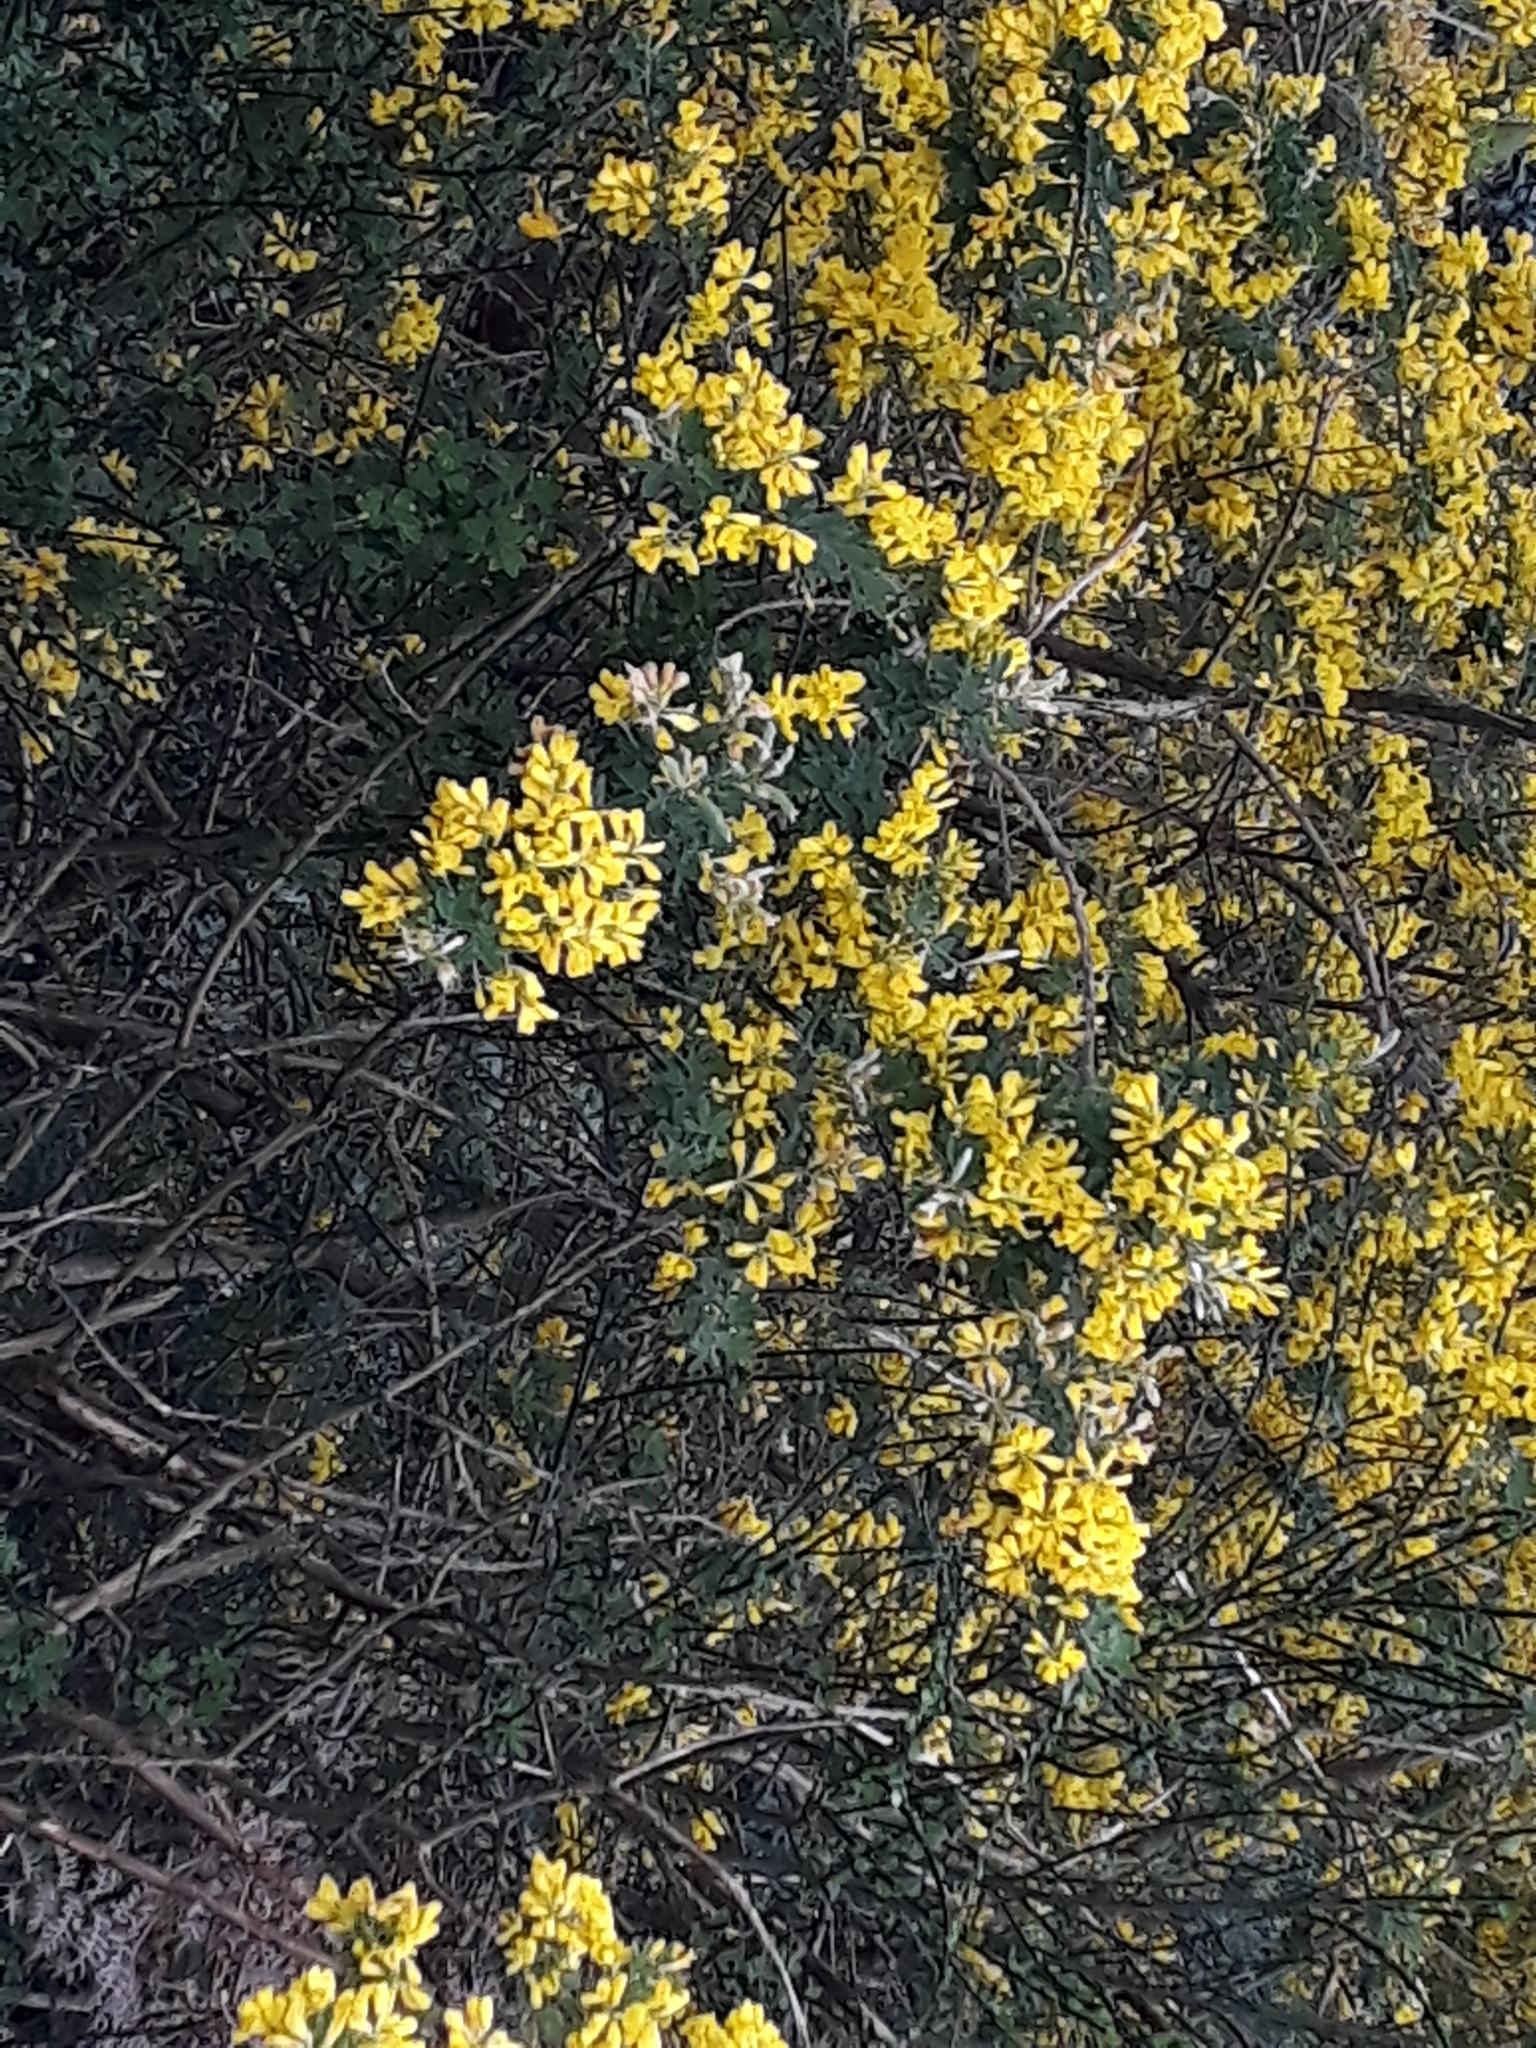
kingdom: Plantae
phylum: Tracheophyta
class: Magnoliopsida
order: Fabales
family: Fabaceae
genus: Genista
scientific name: Genista monspessulana
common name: Montpellier broom
